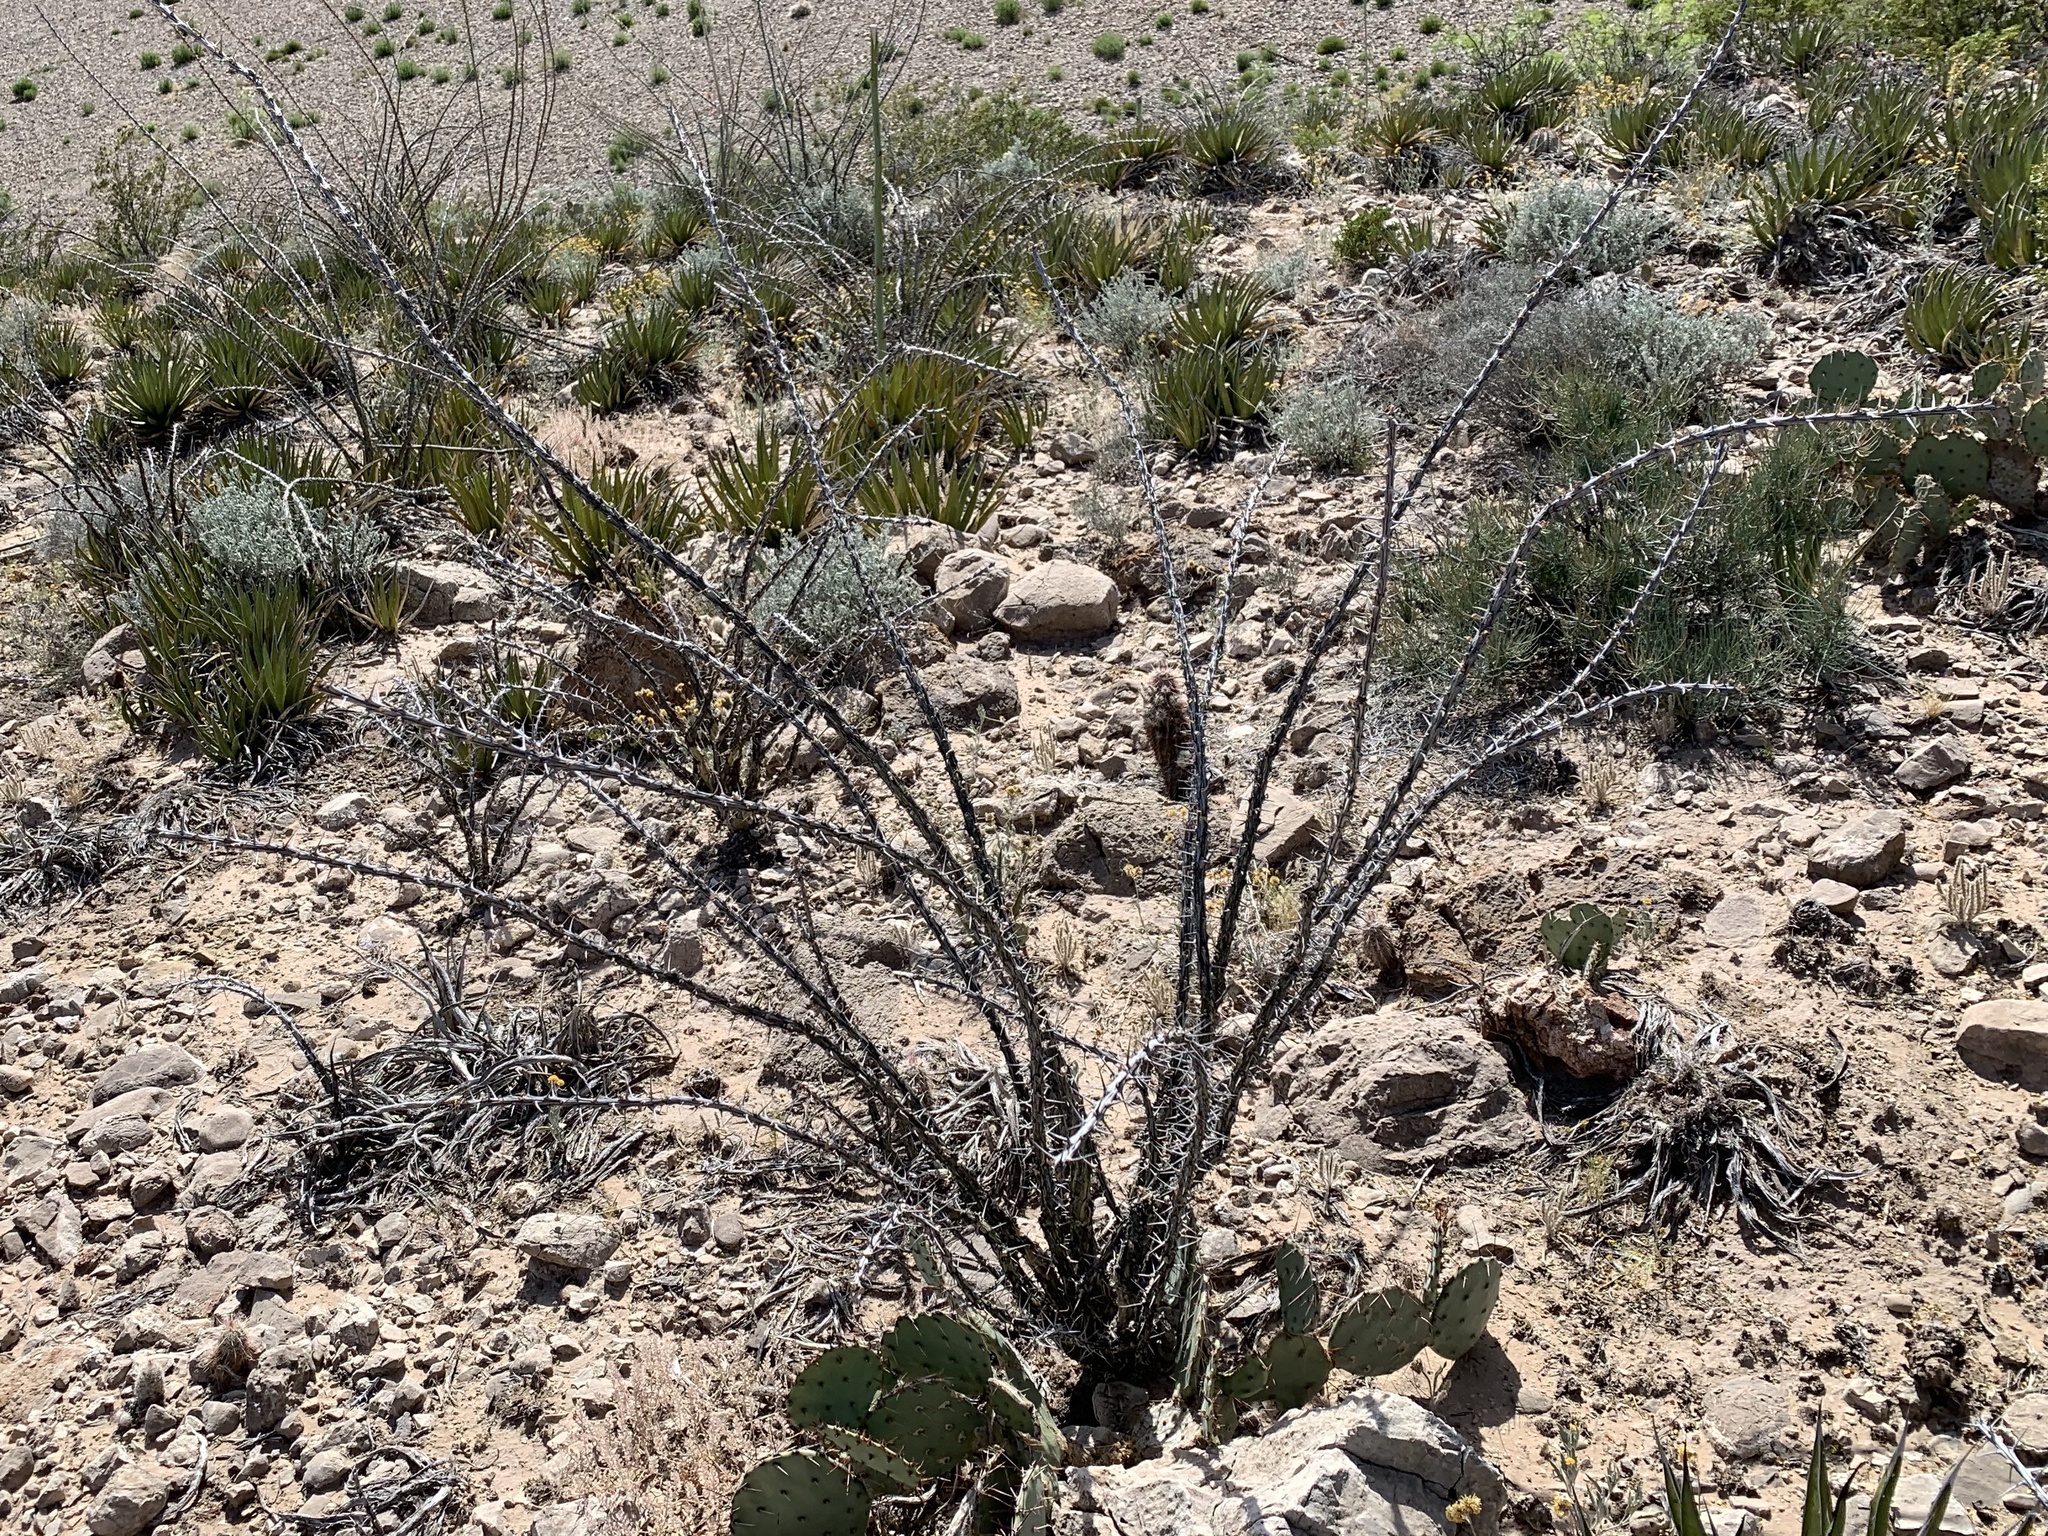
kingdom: Plantae
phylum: Tracheophyta
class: Magnoliopsida
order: Ericales
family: Fouquieriaceae
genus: Fouquieria
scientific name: Fouquieria splendens
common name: Vine-cactus
